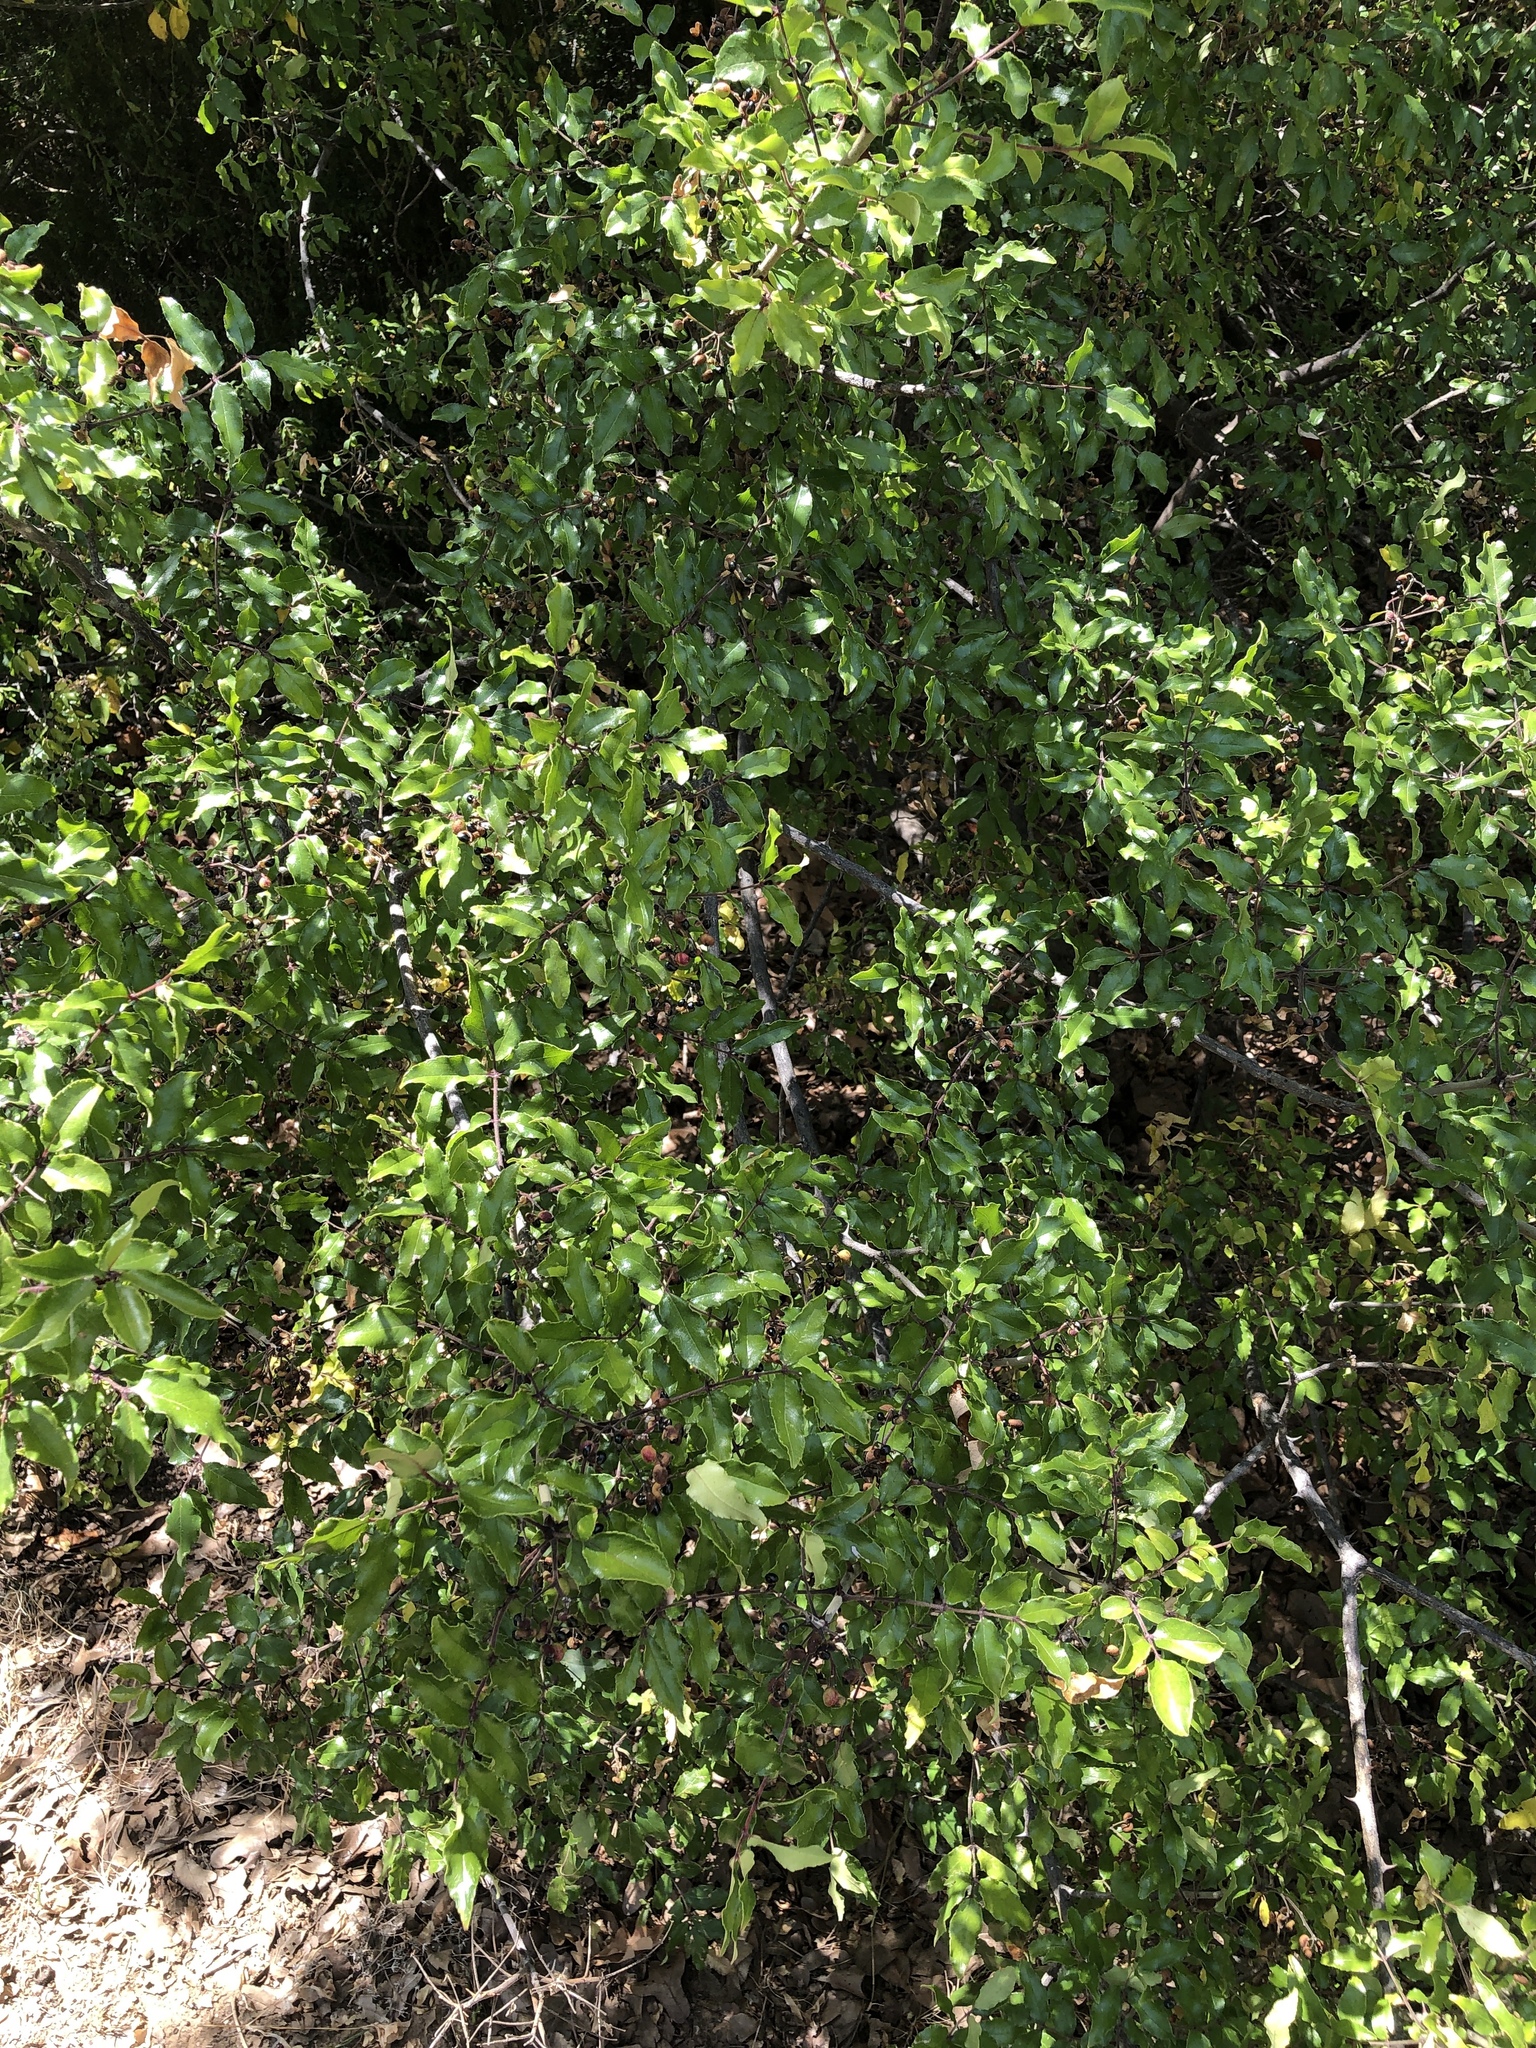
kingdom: Plantae
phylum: Tracheophyta
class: Magnoliopsida
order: Sapindales
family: Rutaceae
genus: Zanthoxylum
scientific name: Zanthoxylum clava-herculis
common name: Hercules'-club
